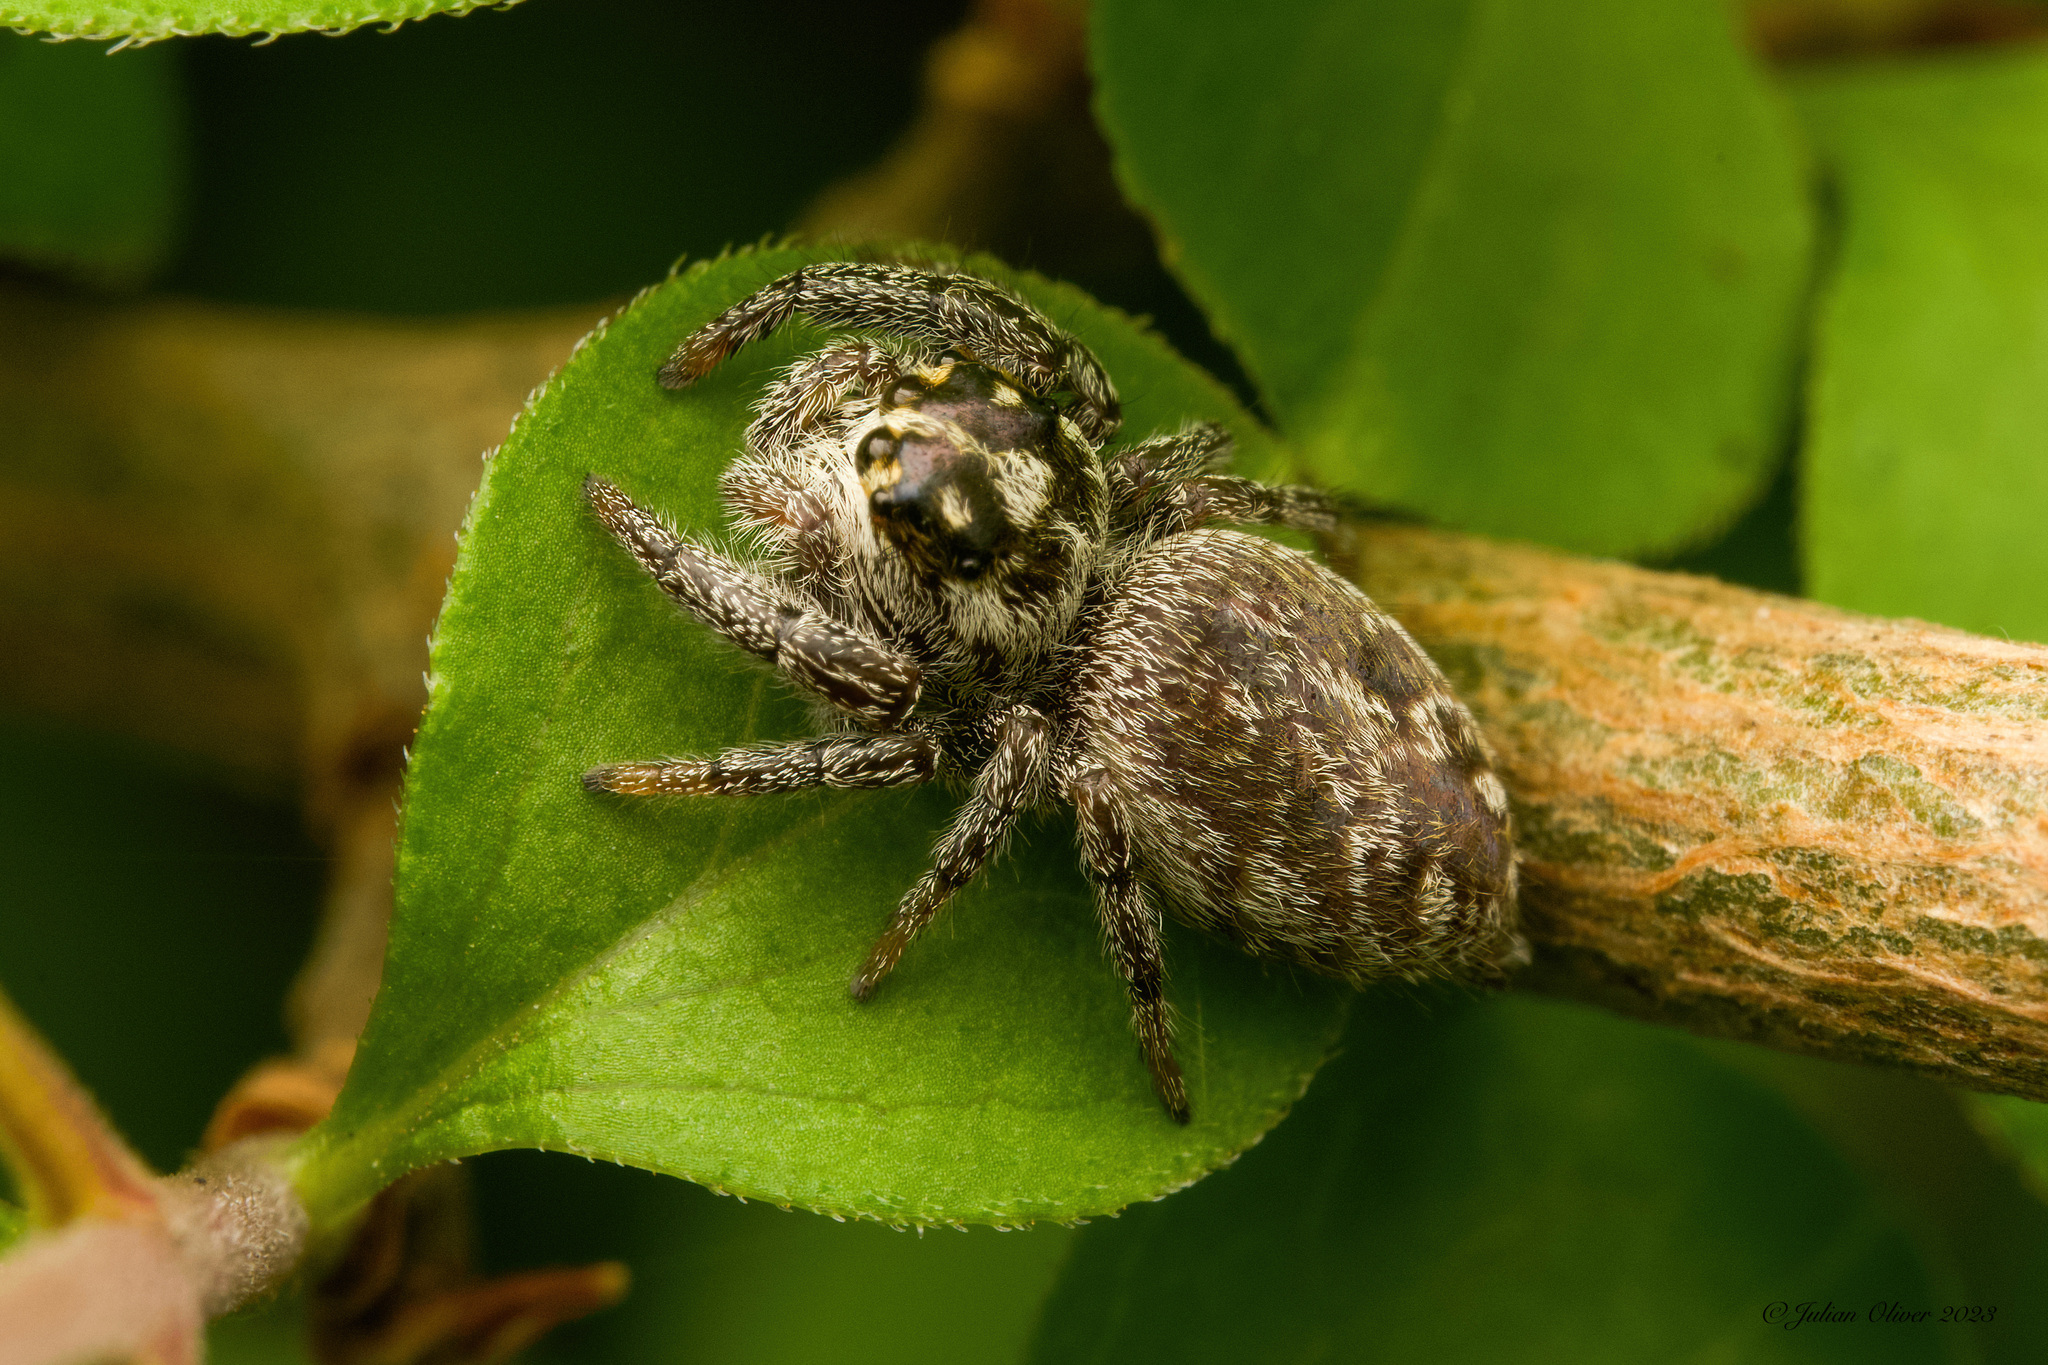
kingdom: Animalia
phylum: Arthropoda
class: Arachnida
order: Araneae
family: Salticidae
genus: Macaroeris
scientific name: Macaroeris nidicolens
